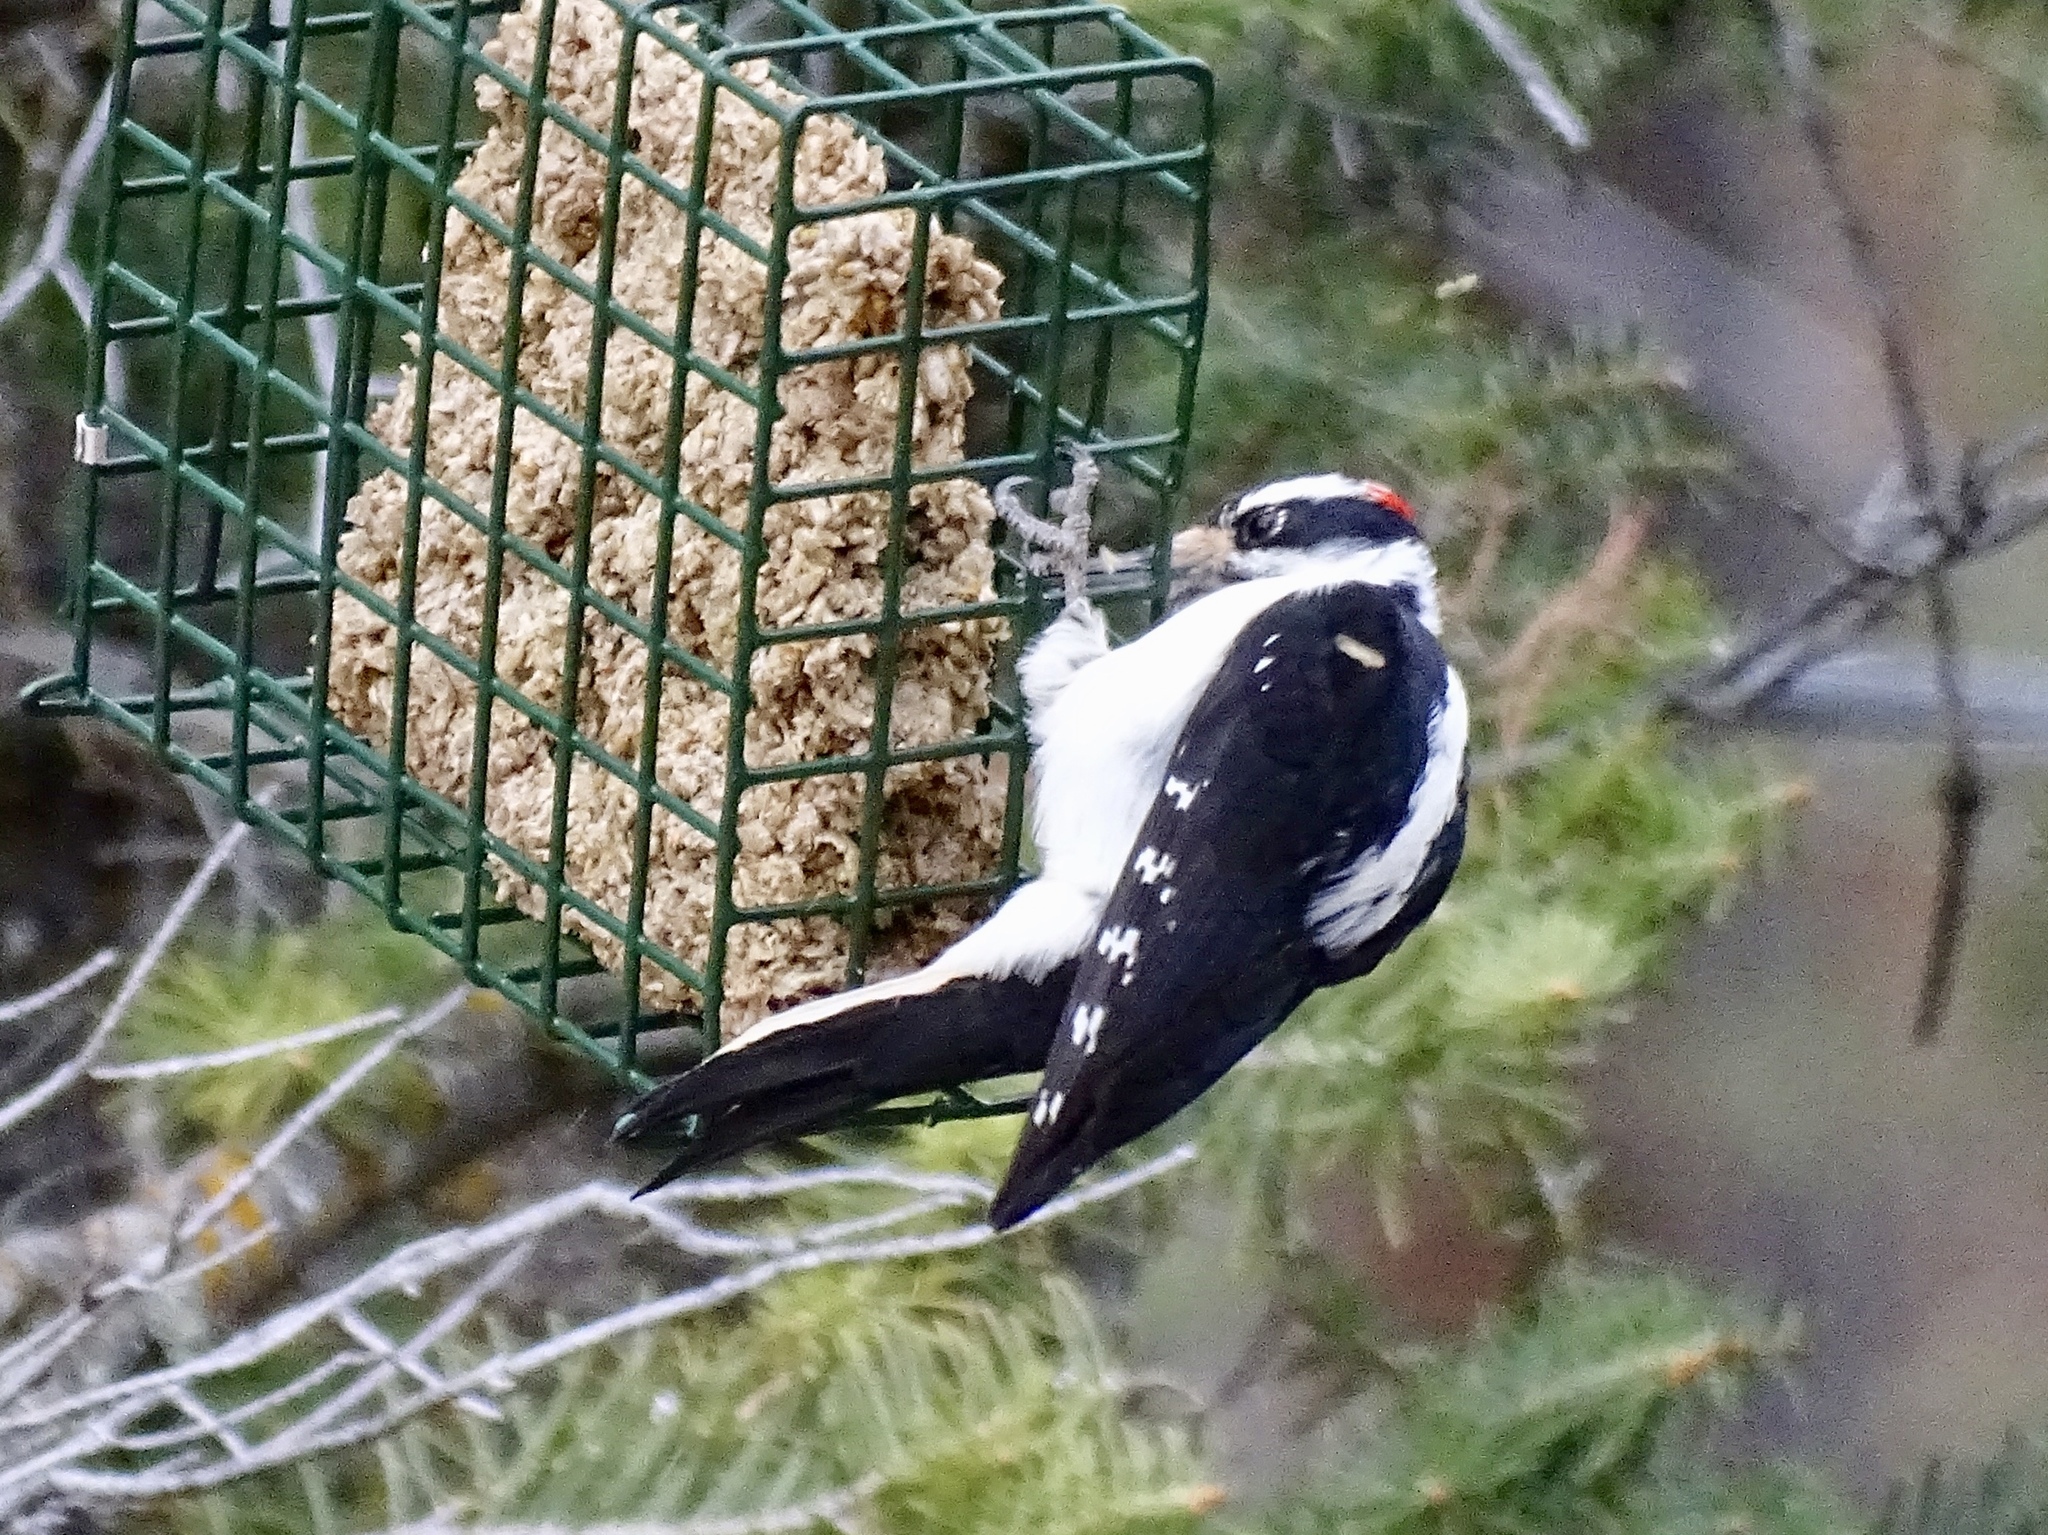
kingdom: Animalia
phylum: Chordata
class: Aves
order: Piciformes
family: Picidae
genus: Leuconotopicus
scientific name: Leuconotopicus villosus
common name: Hairy woodpecker
